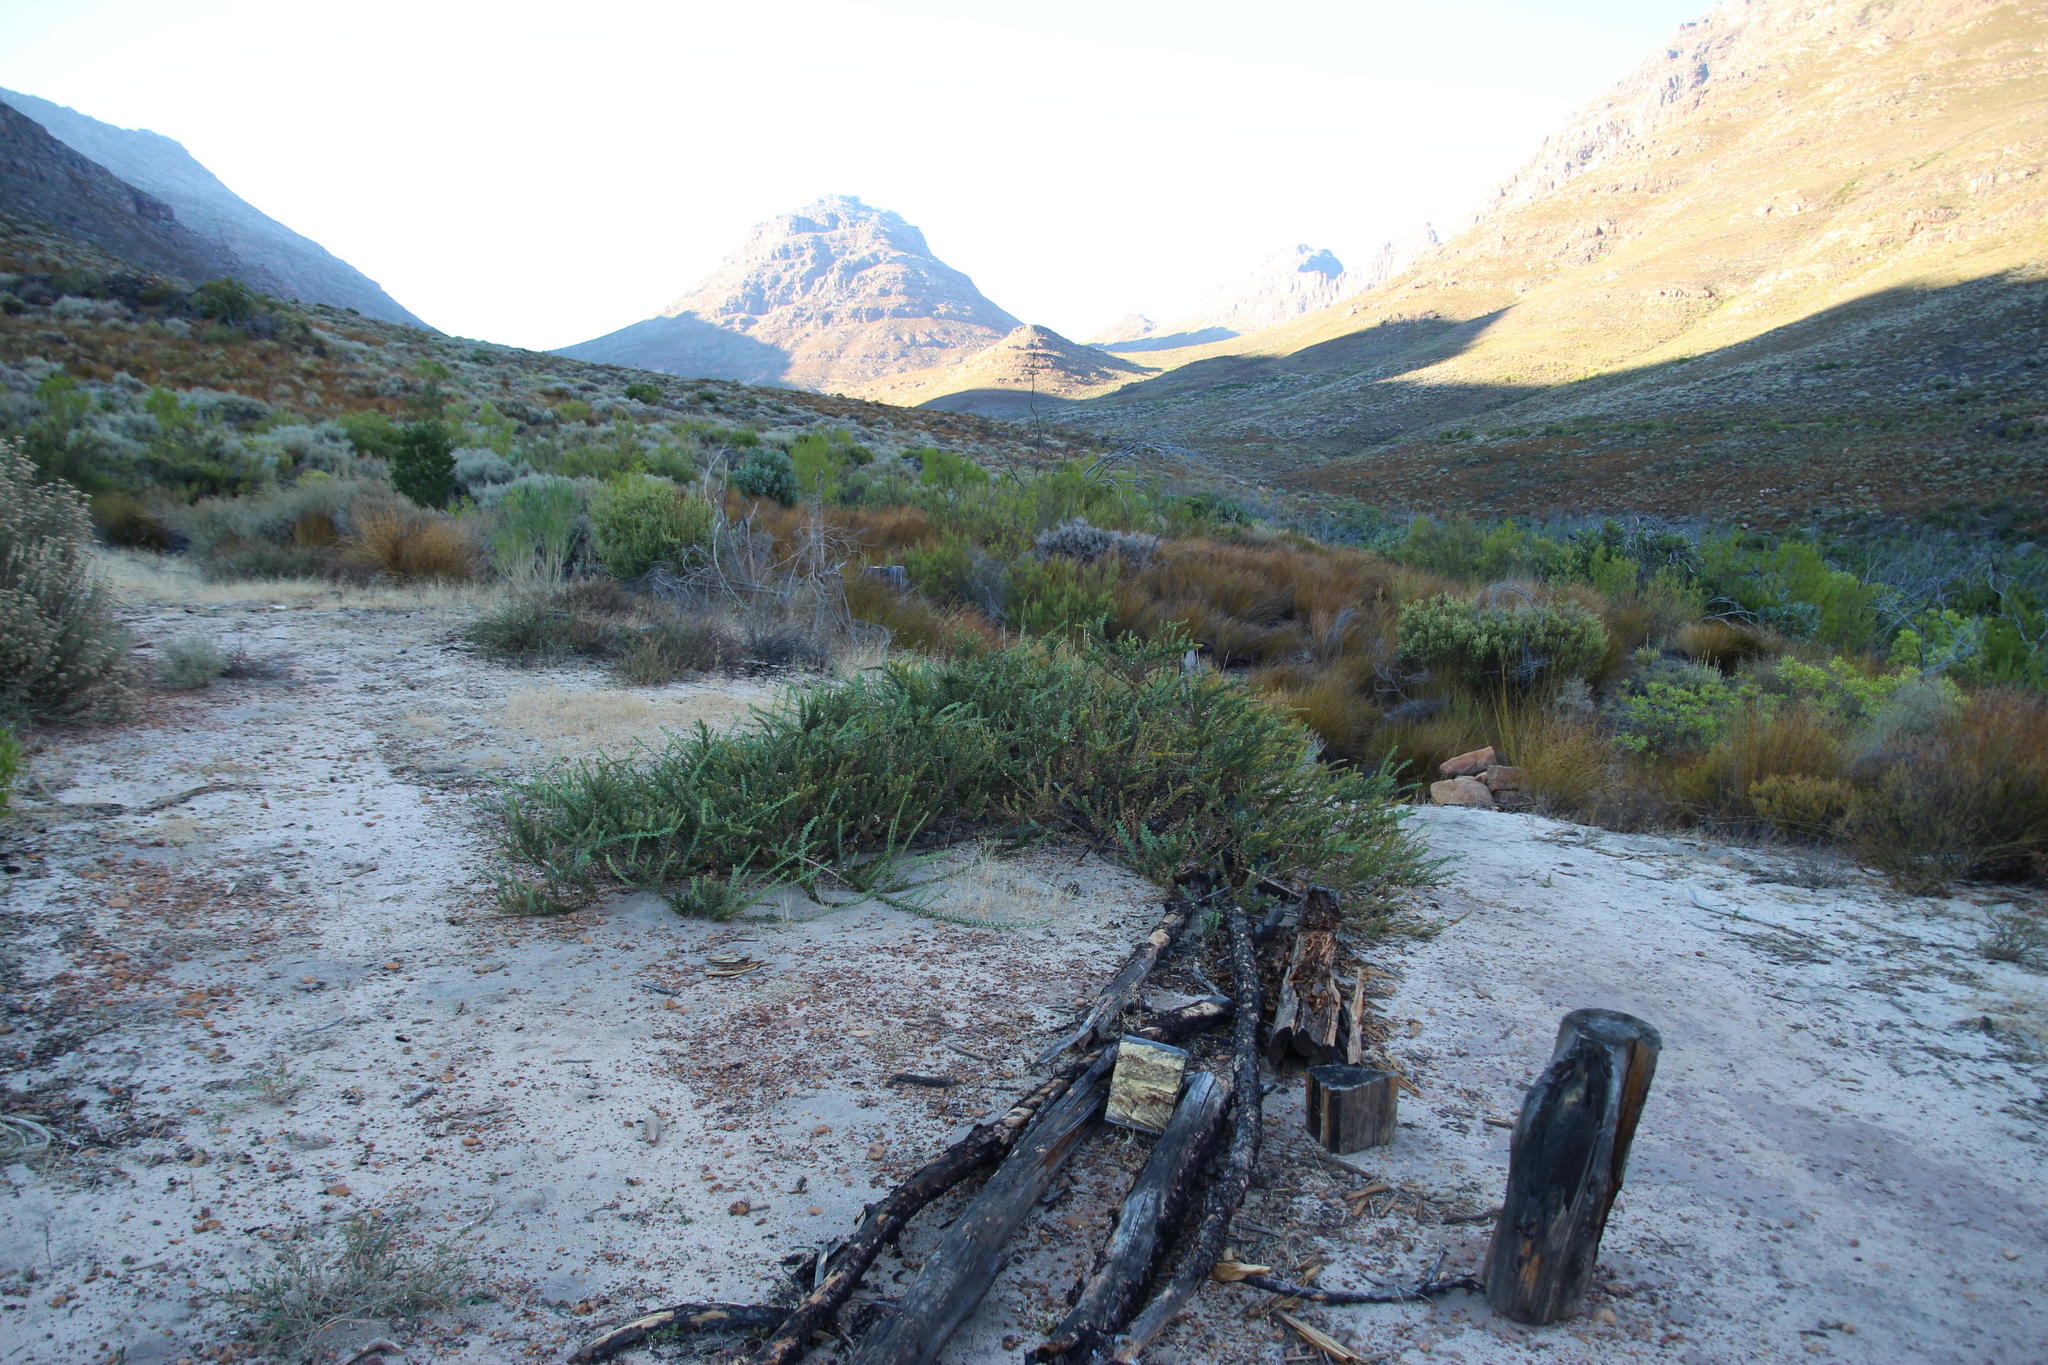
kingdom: Plantae
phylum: Tracheophyta
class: Magnoliopsida
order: Lamiales
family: Scrophulariaceae
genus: Oftia
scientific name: Oftia africana
